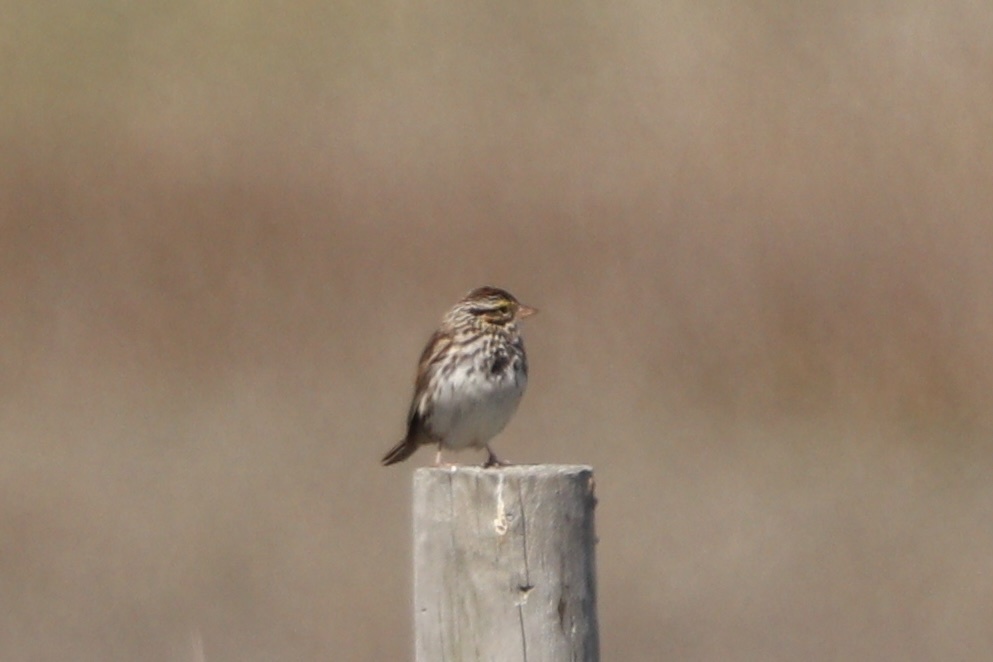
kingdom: Animalia
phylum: Chordata
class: Aves
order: Passeriformes
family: Passerellidae
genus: Passerculus
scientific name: Passerculus sandwichensis
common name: Savannah sparrow
